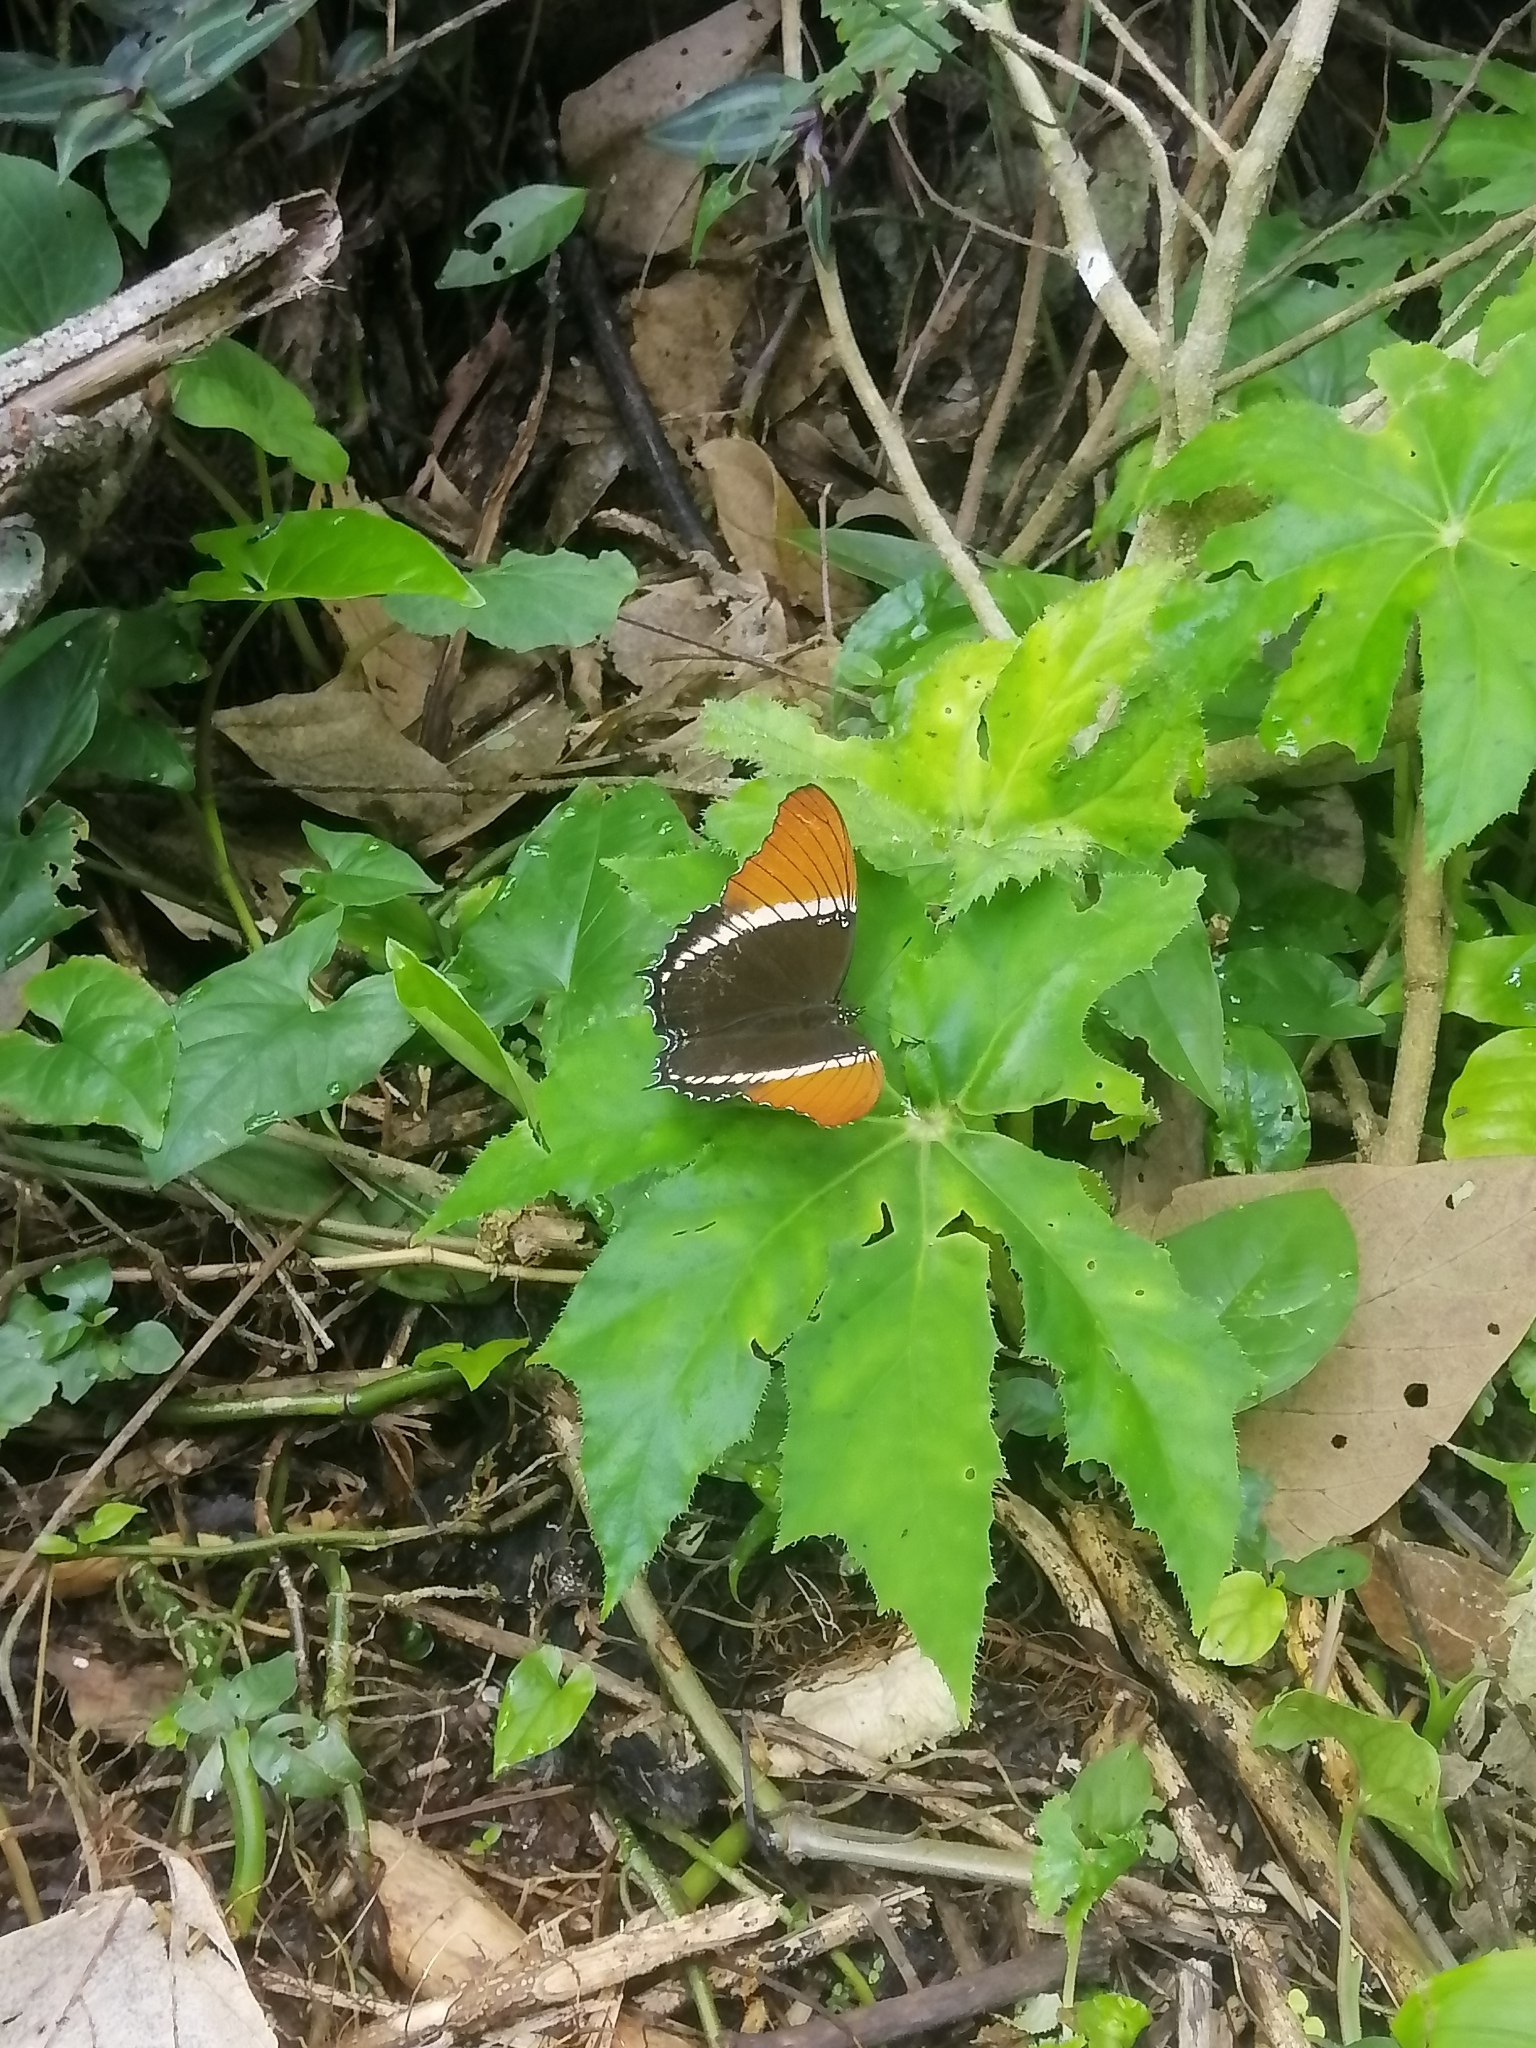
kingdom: Plantae
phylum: Tracheophyta
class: Magnoliopsida
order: Cucurbitales
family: Begoniaceae
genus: Begonia
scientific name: Begonia heracleifolia
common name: Star begonia
